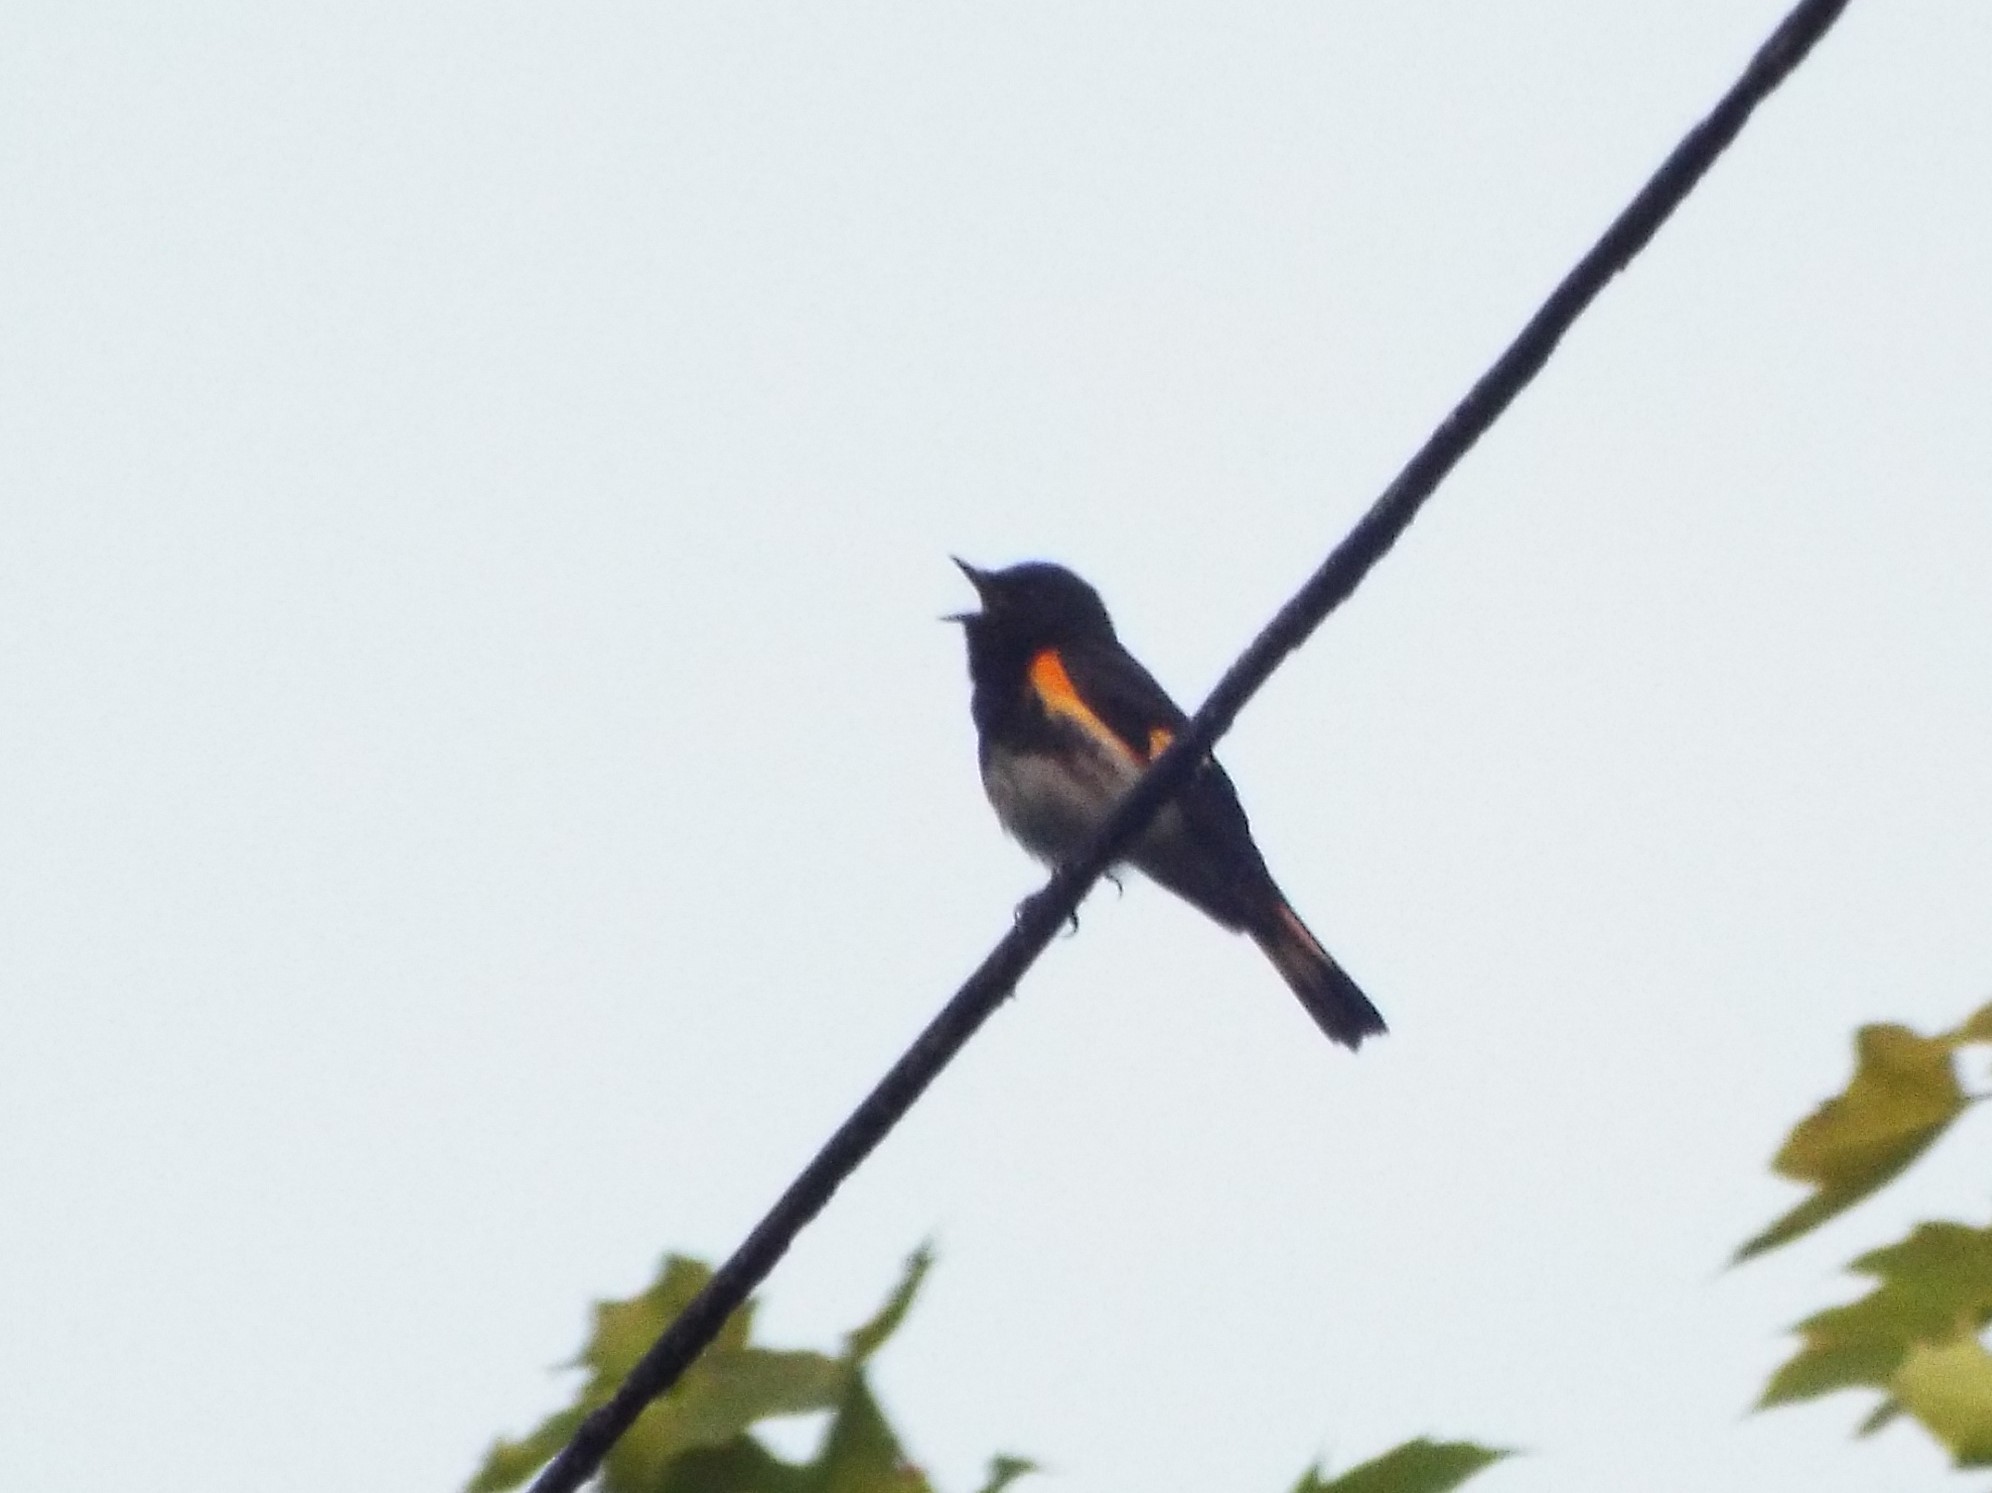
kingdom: Animalia
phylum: Chordata
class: Aves
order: Passeriformes
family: Parulidae
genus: Setophaga
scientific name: Setophaga ruticilla
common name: American redstart
